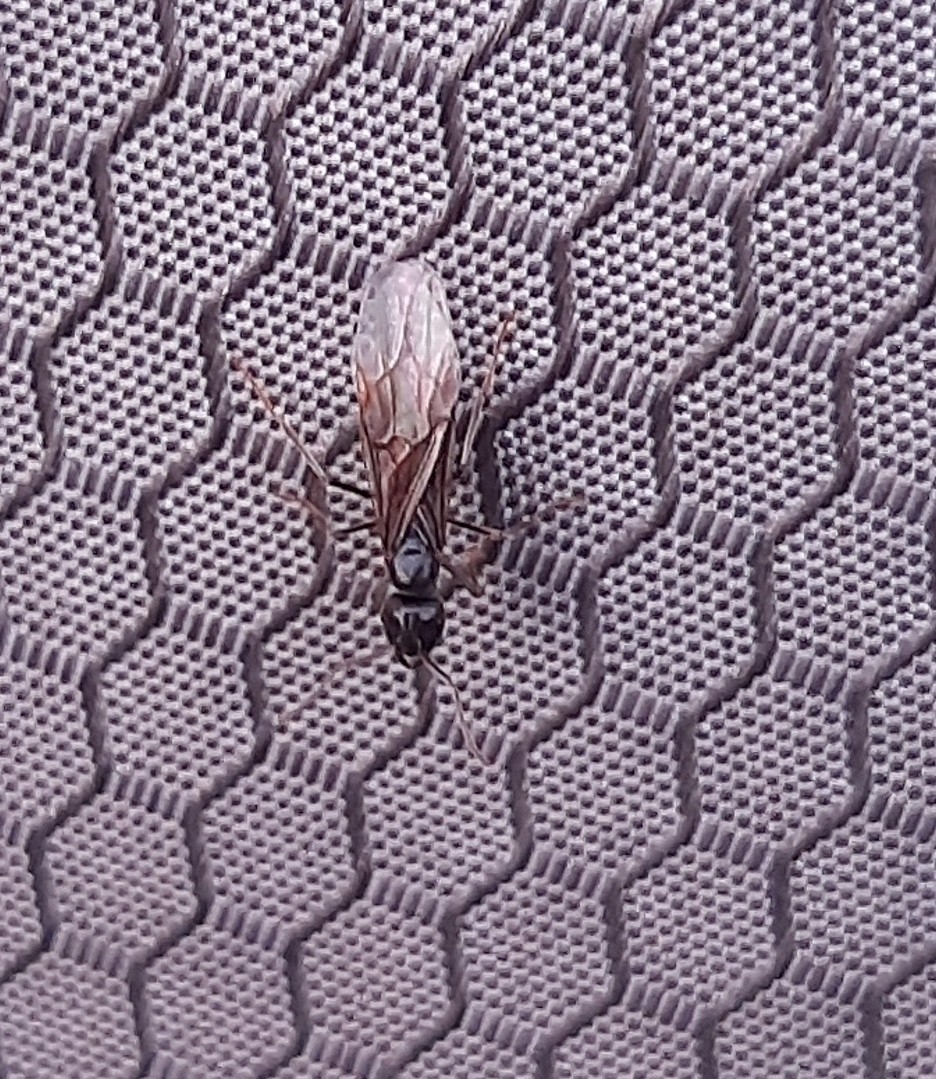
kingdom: Animalia
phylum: Arthropoda
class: Insecta
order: Hymenoptera
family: Formicidae
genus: Lasius
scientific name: Lasius fuliginosus
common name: Jet ant
